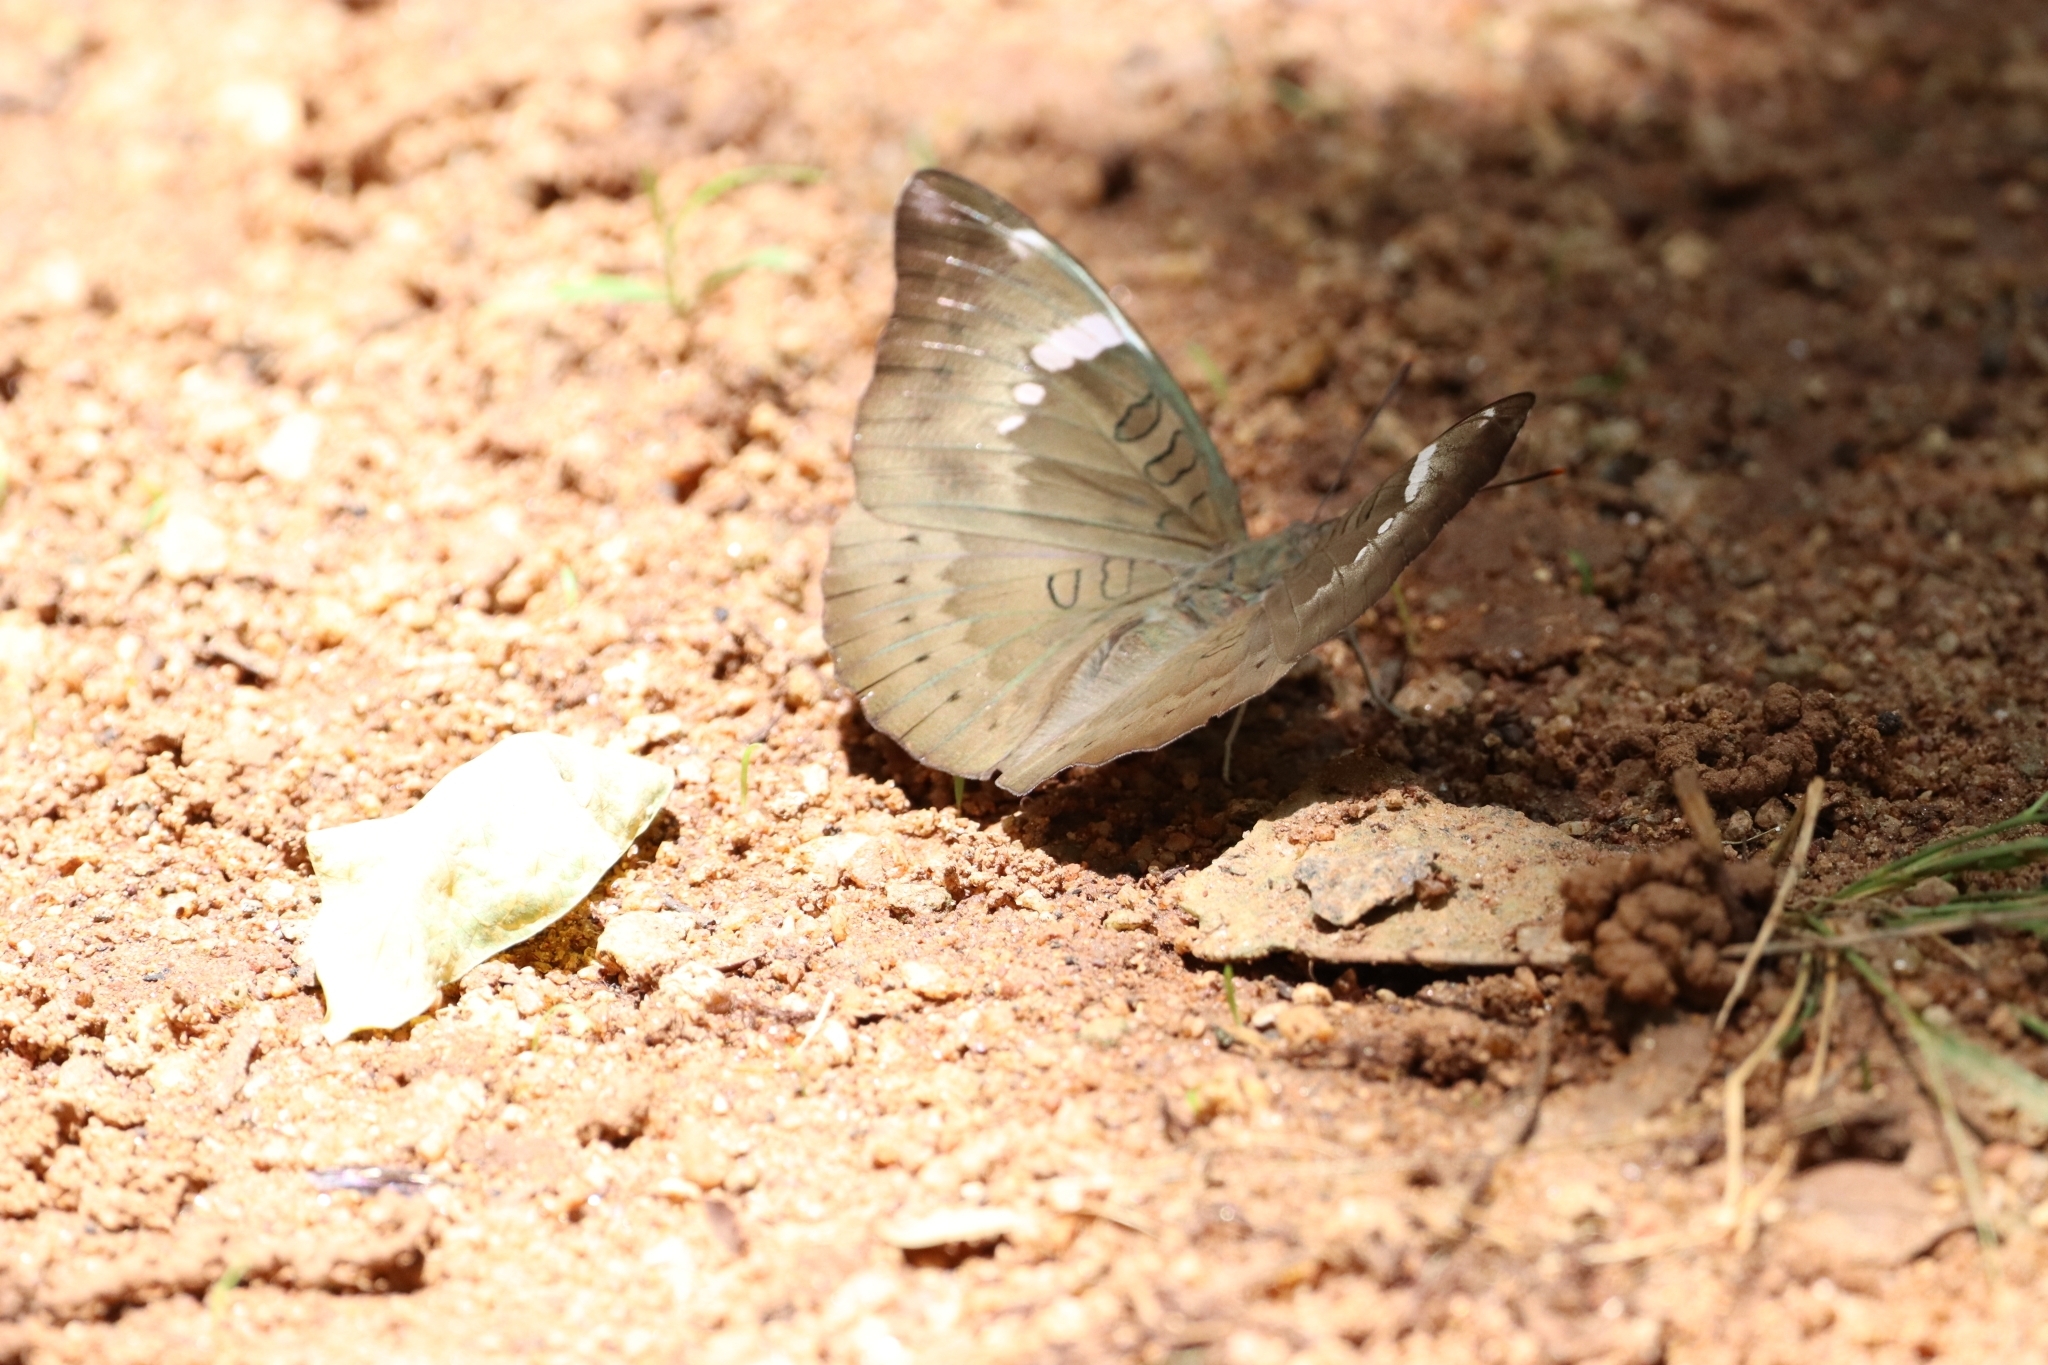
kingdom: Animalia
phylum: Arthropoda
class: Insecta
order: Lepidoptera
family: Nymphalidae
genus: Euthalia
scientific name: Euthalia aconthea
